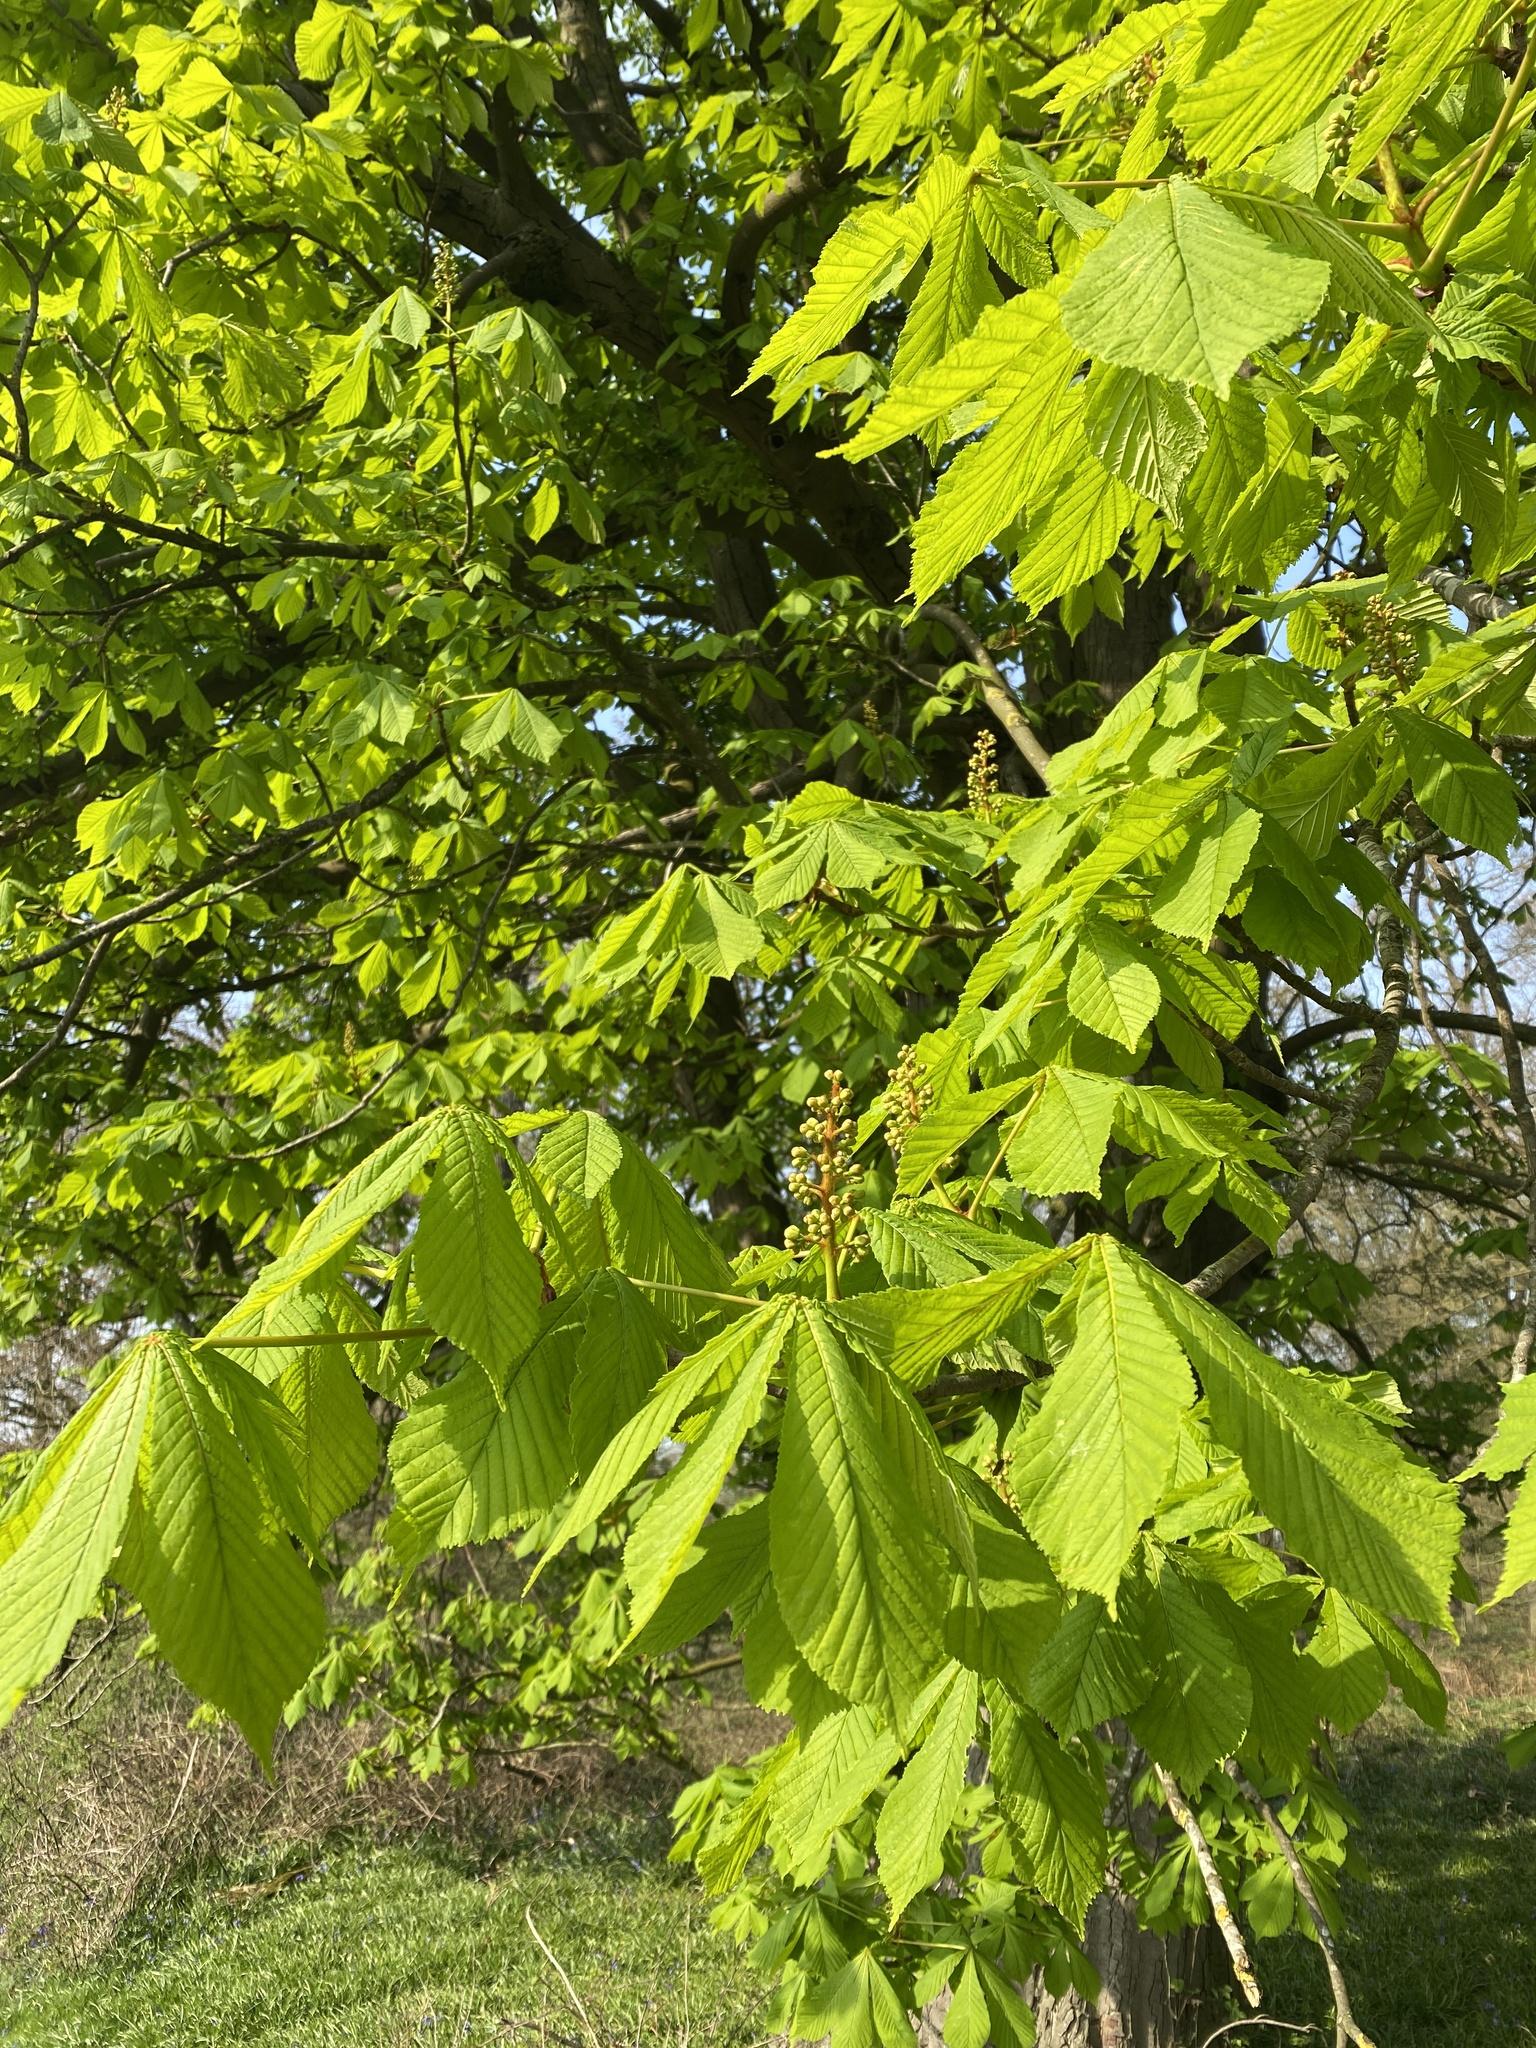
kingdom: Plantae
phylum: Tracheophyta
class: Magnoliopsida
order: Sapindales
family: Sapindaceae
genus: Aesculus
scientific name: Aesculus hippocastanum
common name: Horse-chestnut
